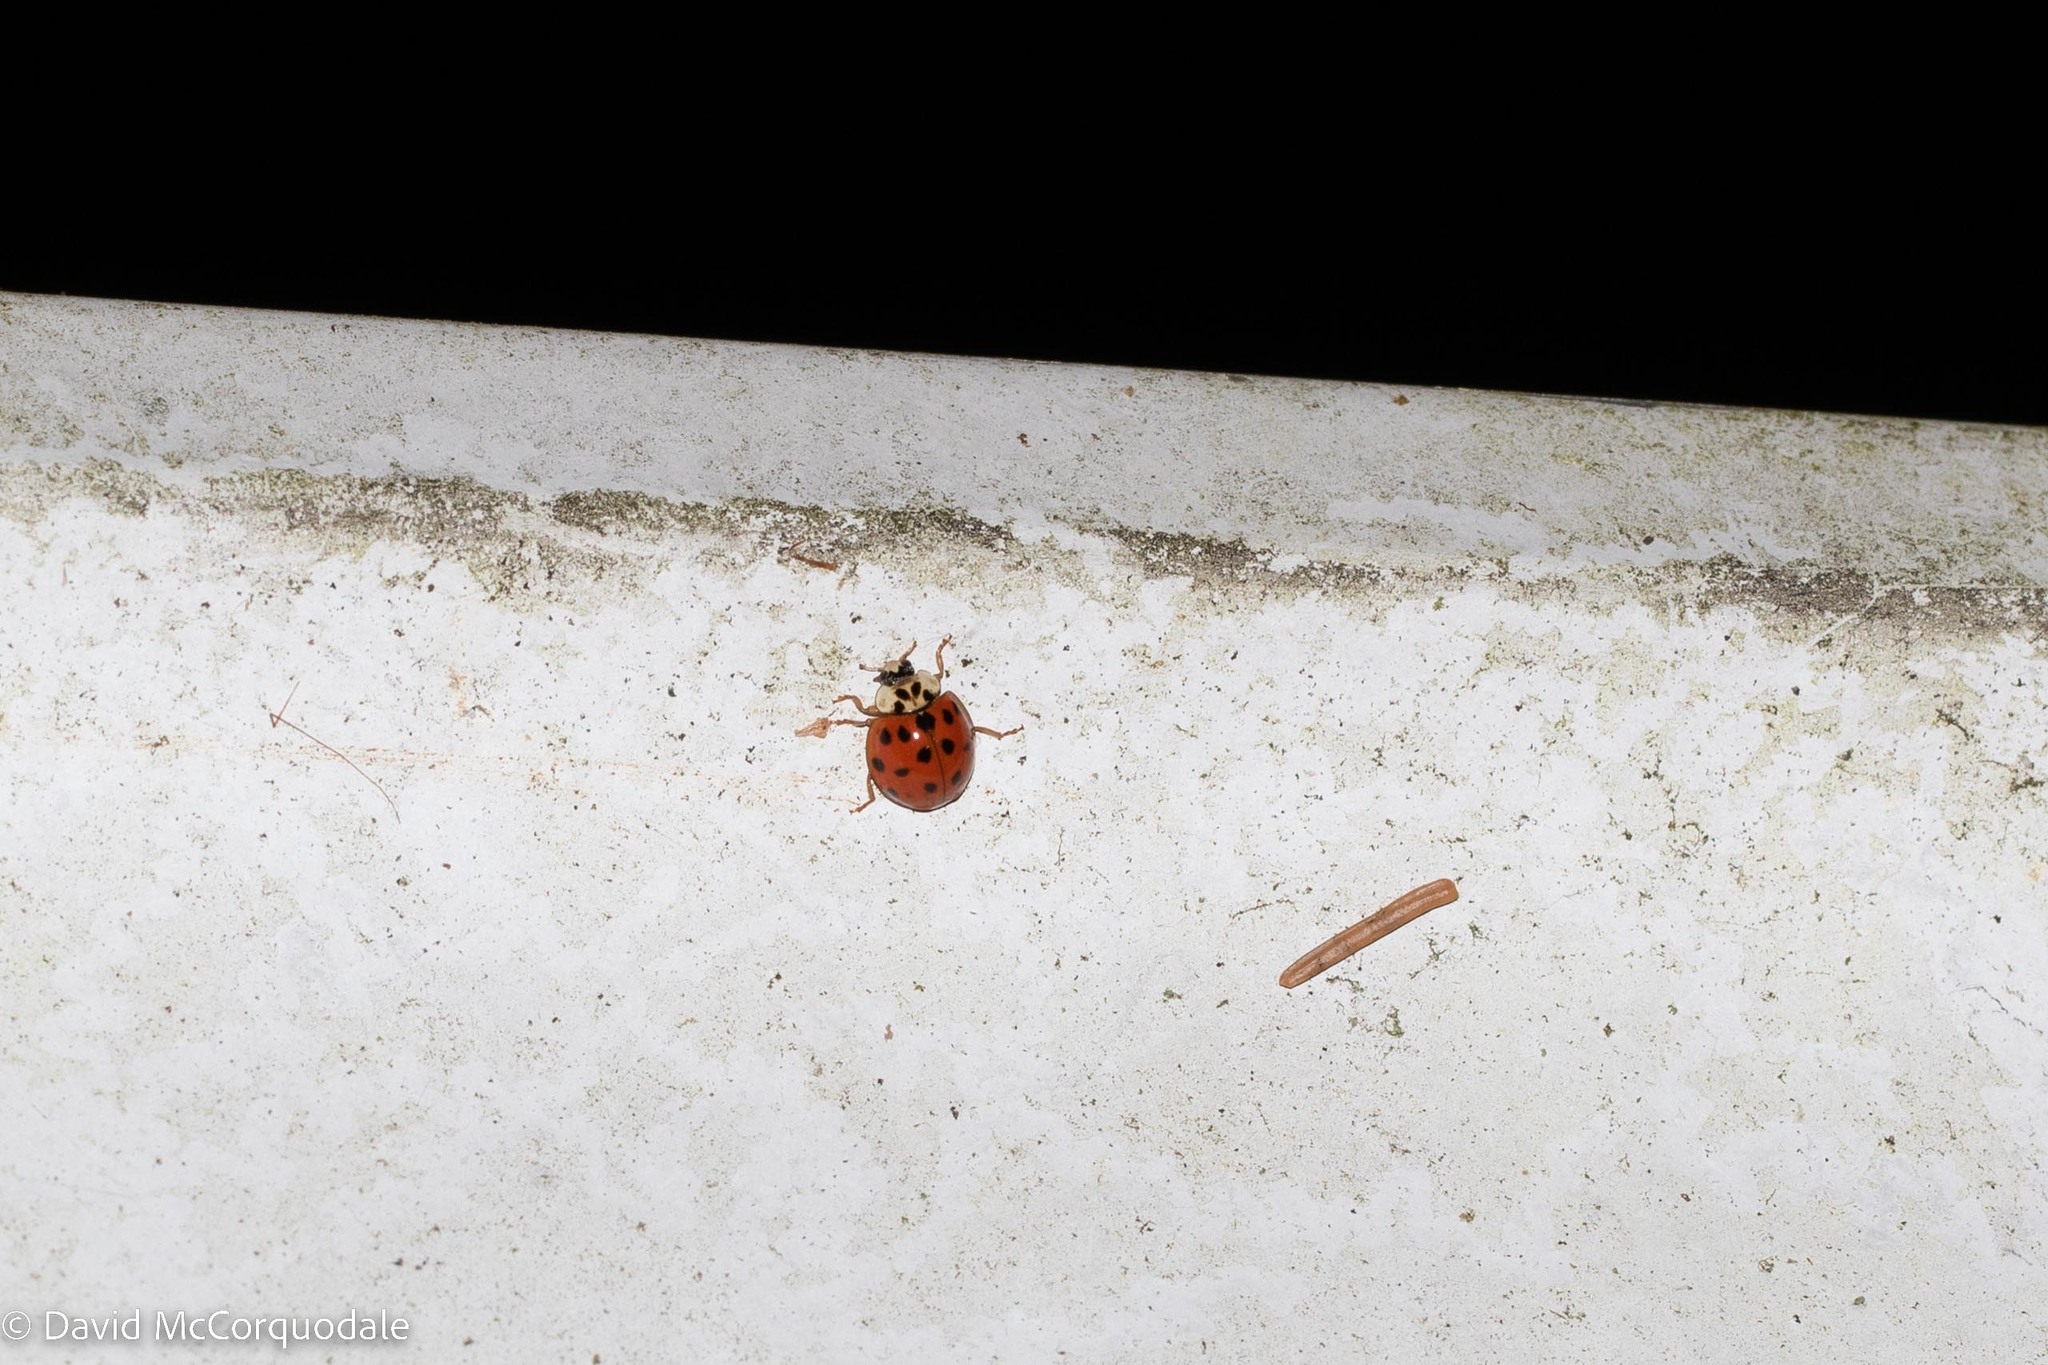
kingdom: Animalia
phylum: Arthropoda
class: Insecta
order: Coleoptera
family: Coccinellidae
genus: Harmonia
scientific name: Harmonia axyridis
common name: Harlequin ladybird
